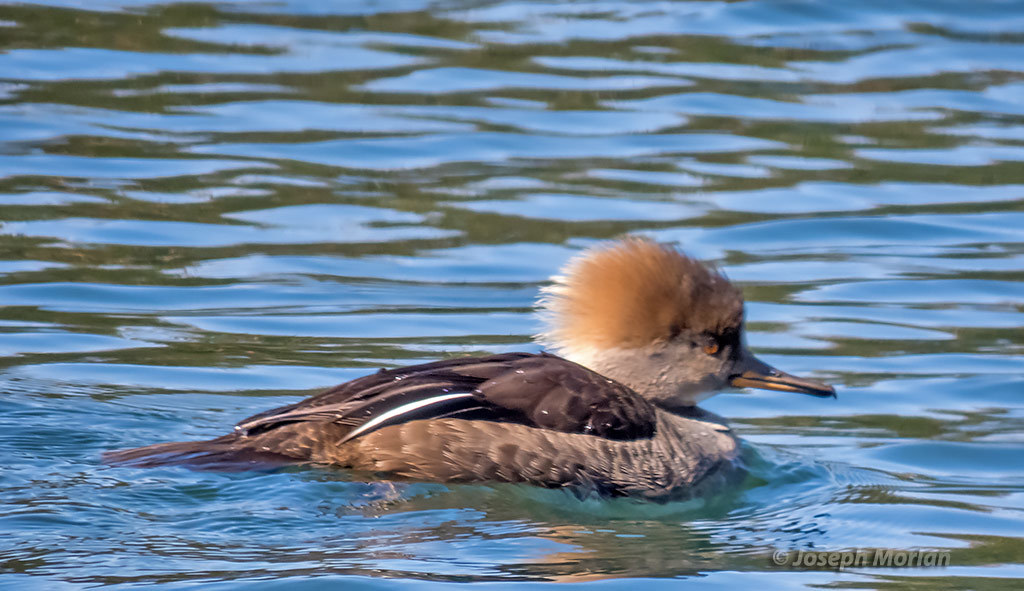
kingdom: Animalia
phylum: Chordata
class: Aves
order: Anseriformes
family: Anatidae
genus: Lophodytes
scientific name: Lophodytes cucullatus
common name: Hooded merganser
